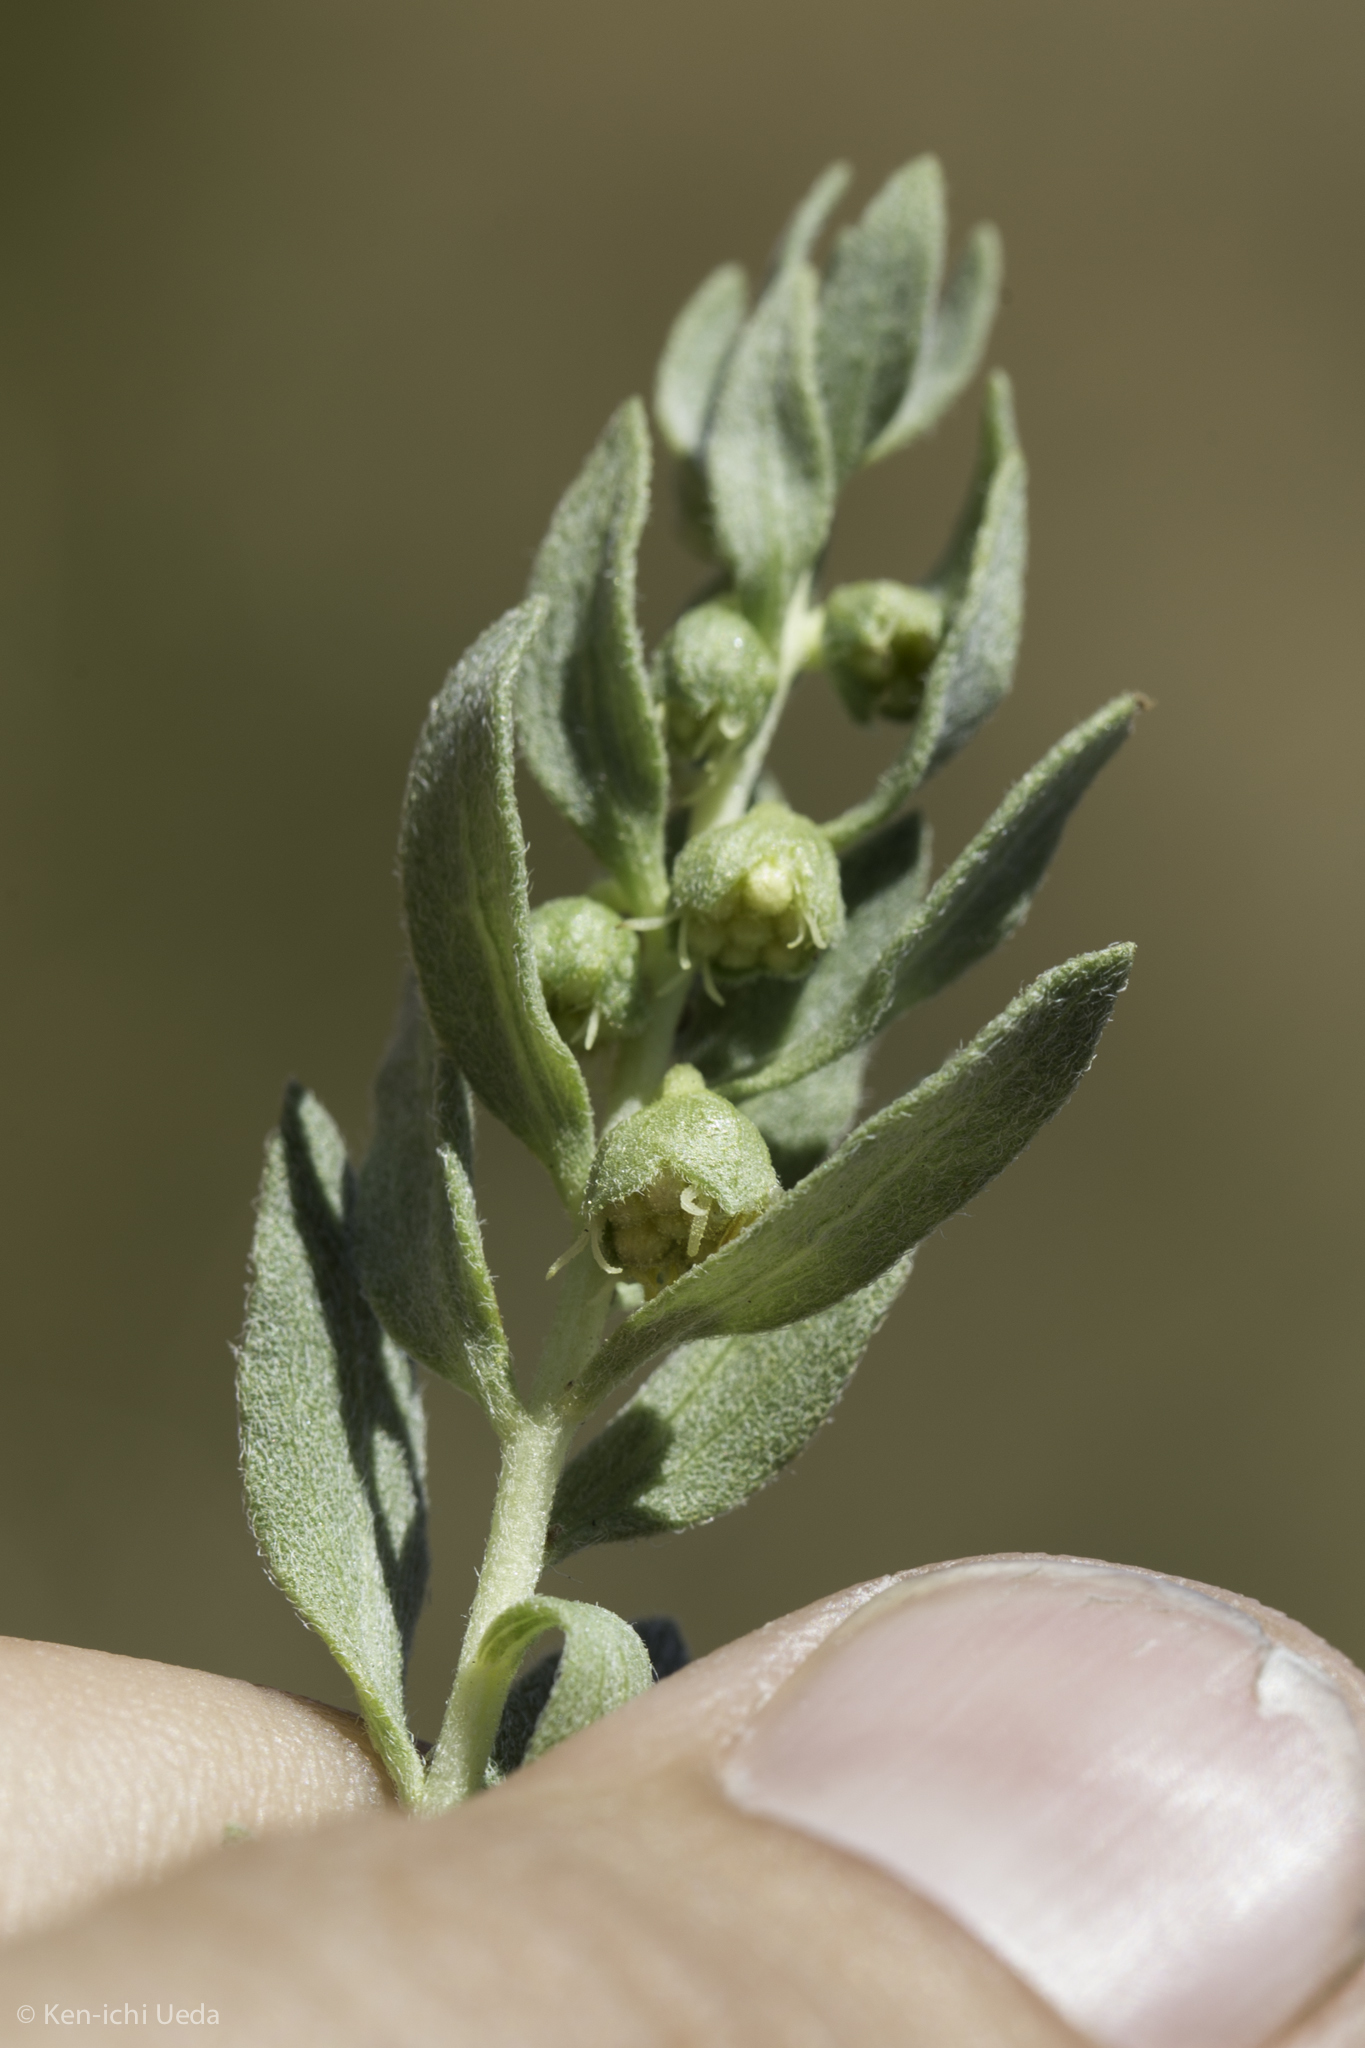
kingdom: Plantae
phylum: Tracheophyta
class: Magnoliopsida
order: Asterales
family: Asteraceae
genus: Iva
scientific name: Iva axillaris
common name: Poverty sumpweed
